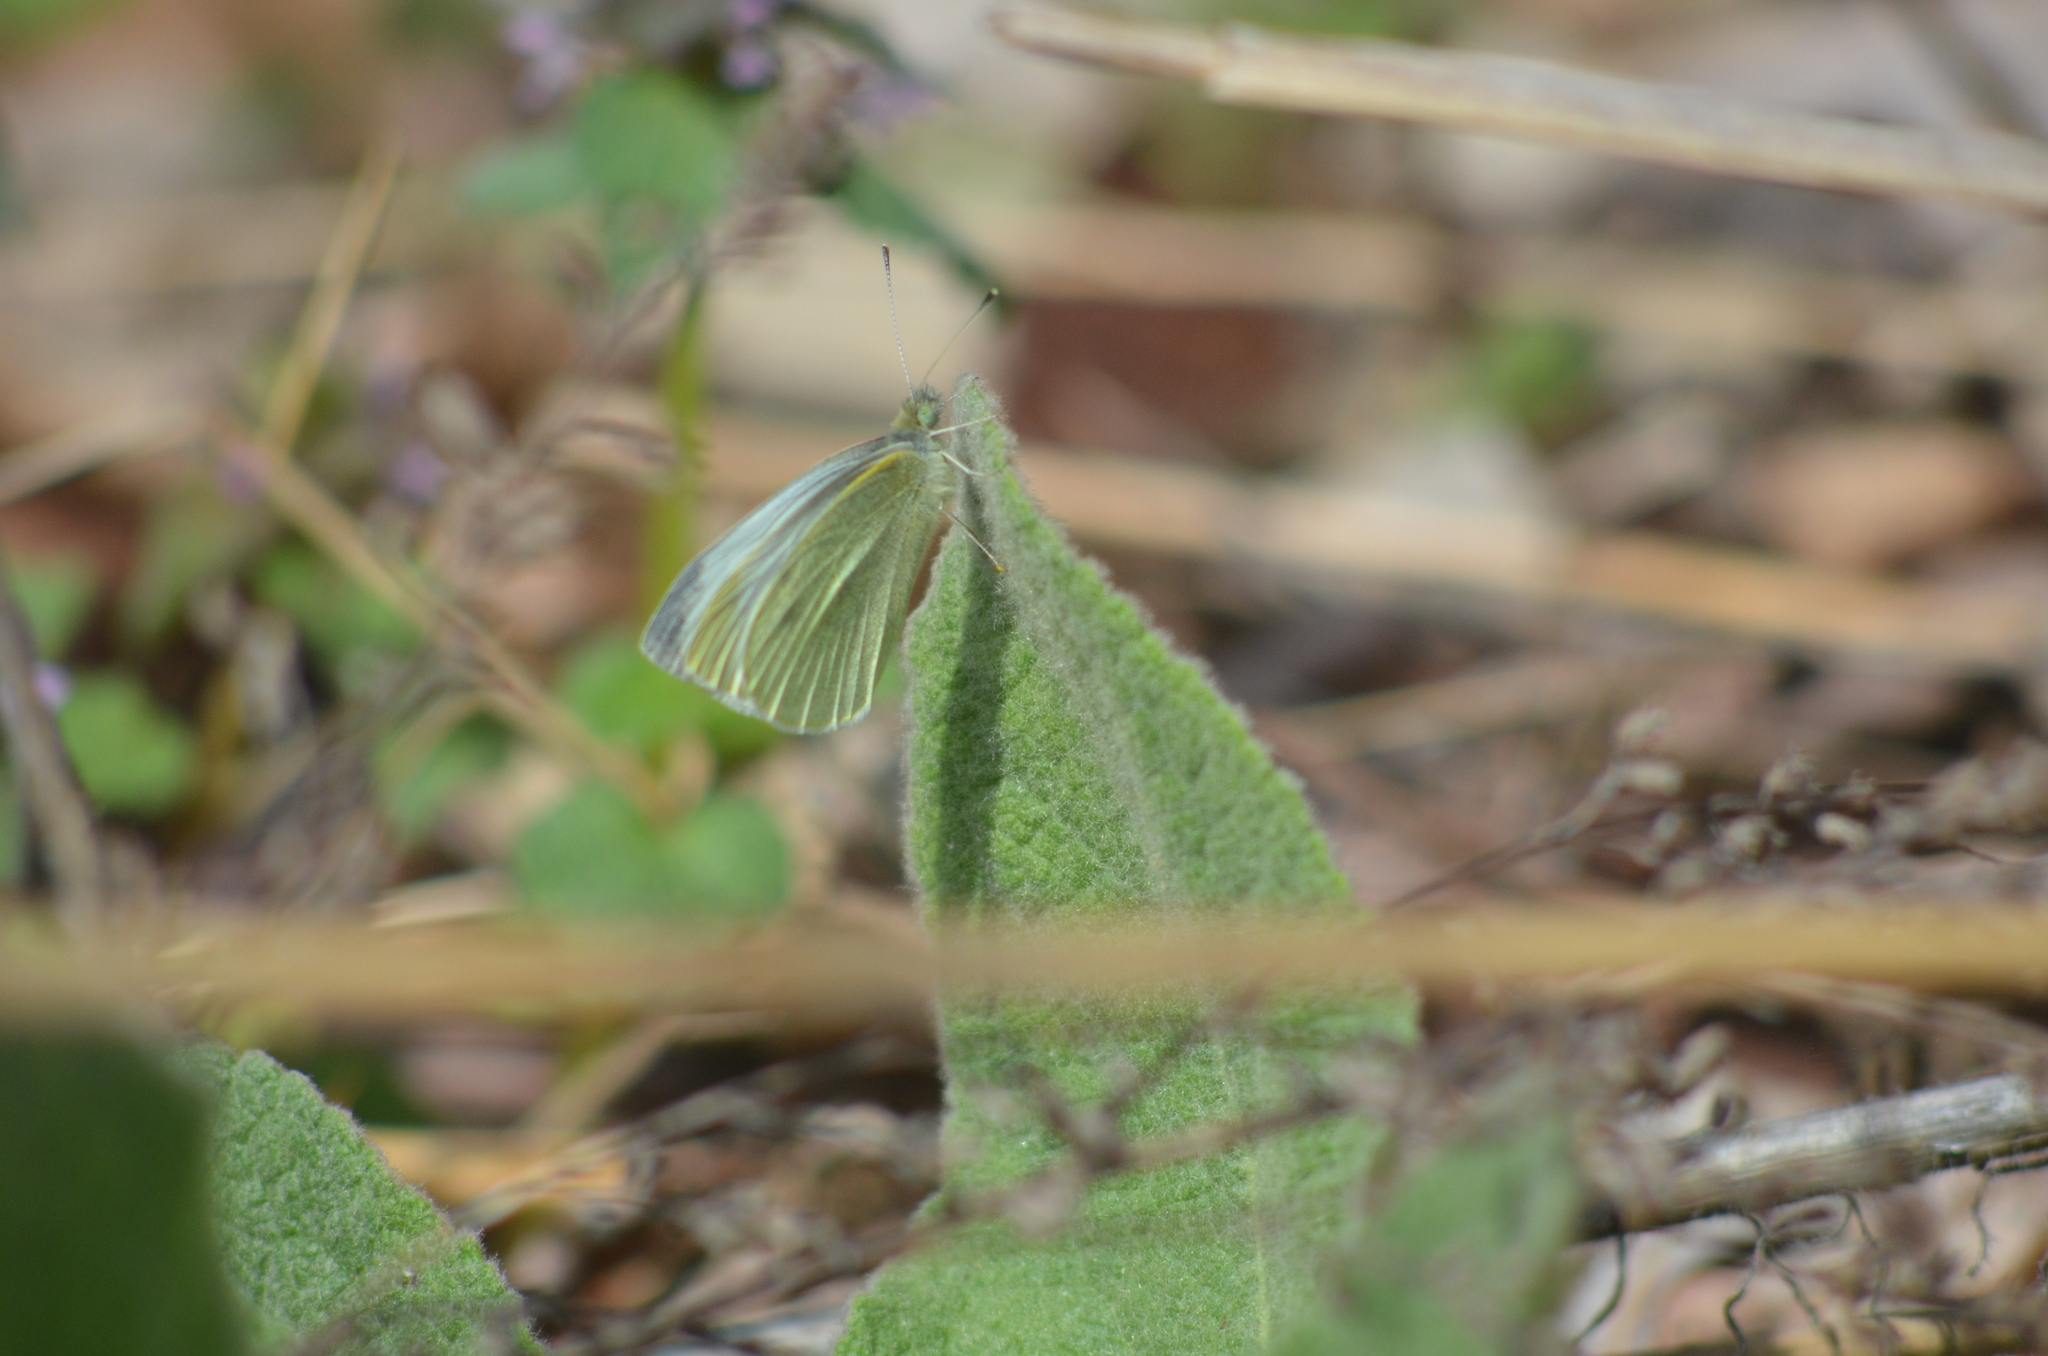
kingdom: Animalia
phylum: Arthropoda
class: Insecta
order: Lepidoptera
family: Pieridae
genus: Pieris
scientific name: Pieris rapae
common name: Small white
